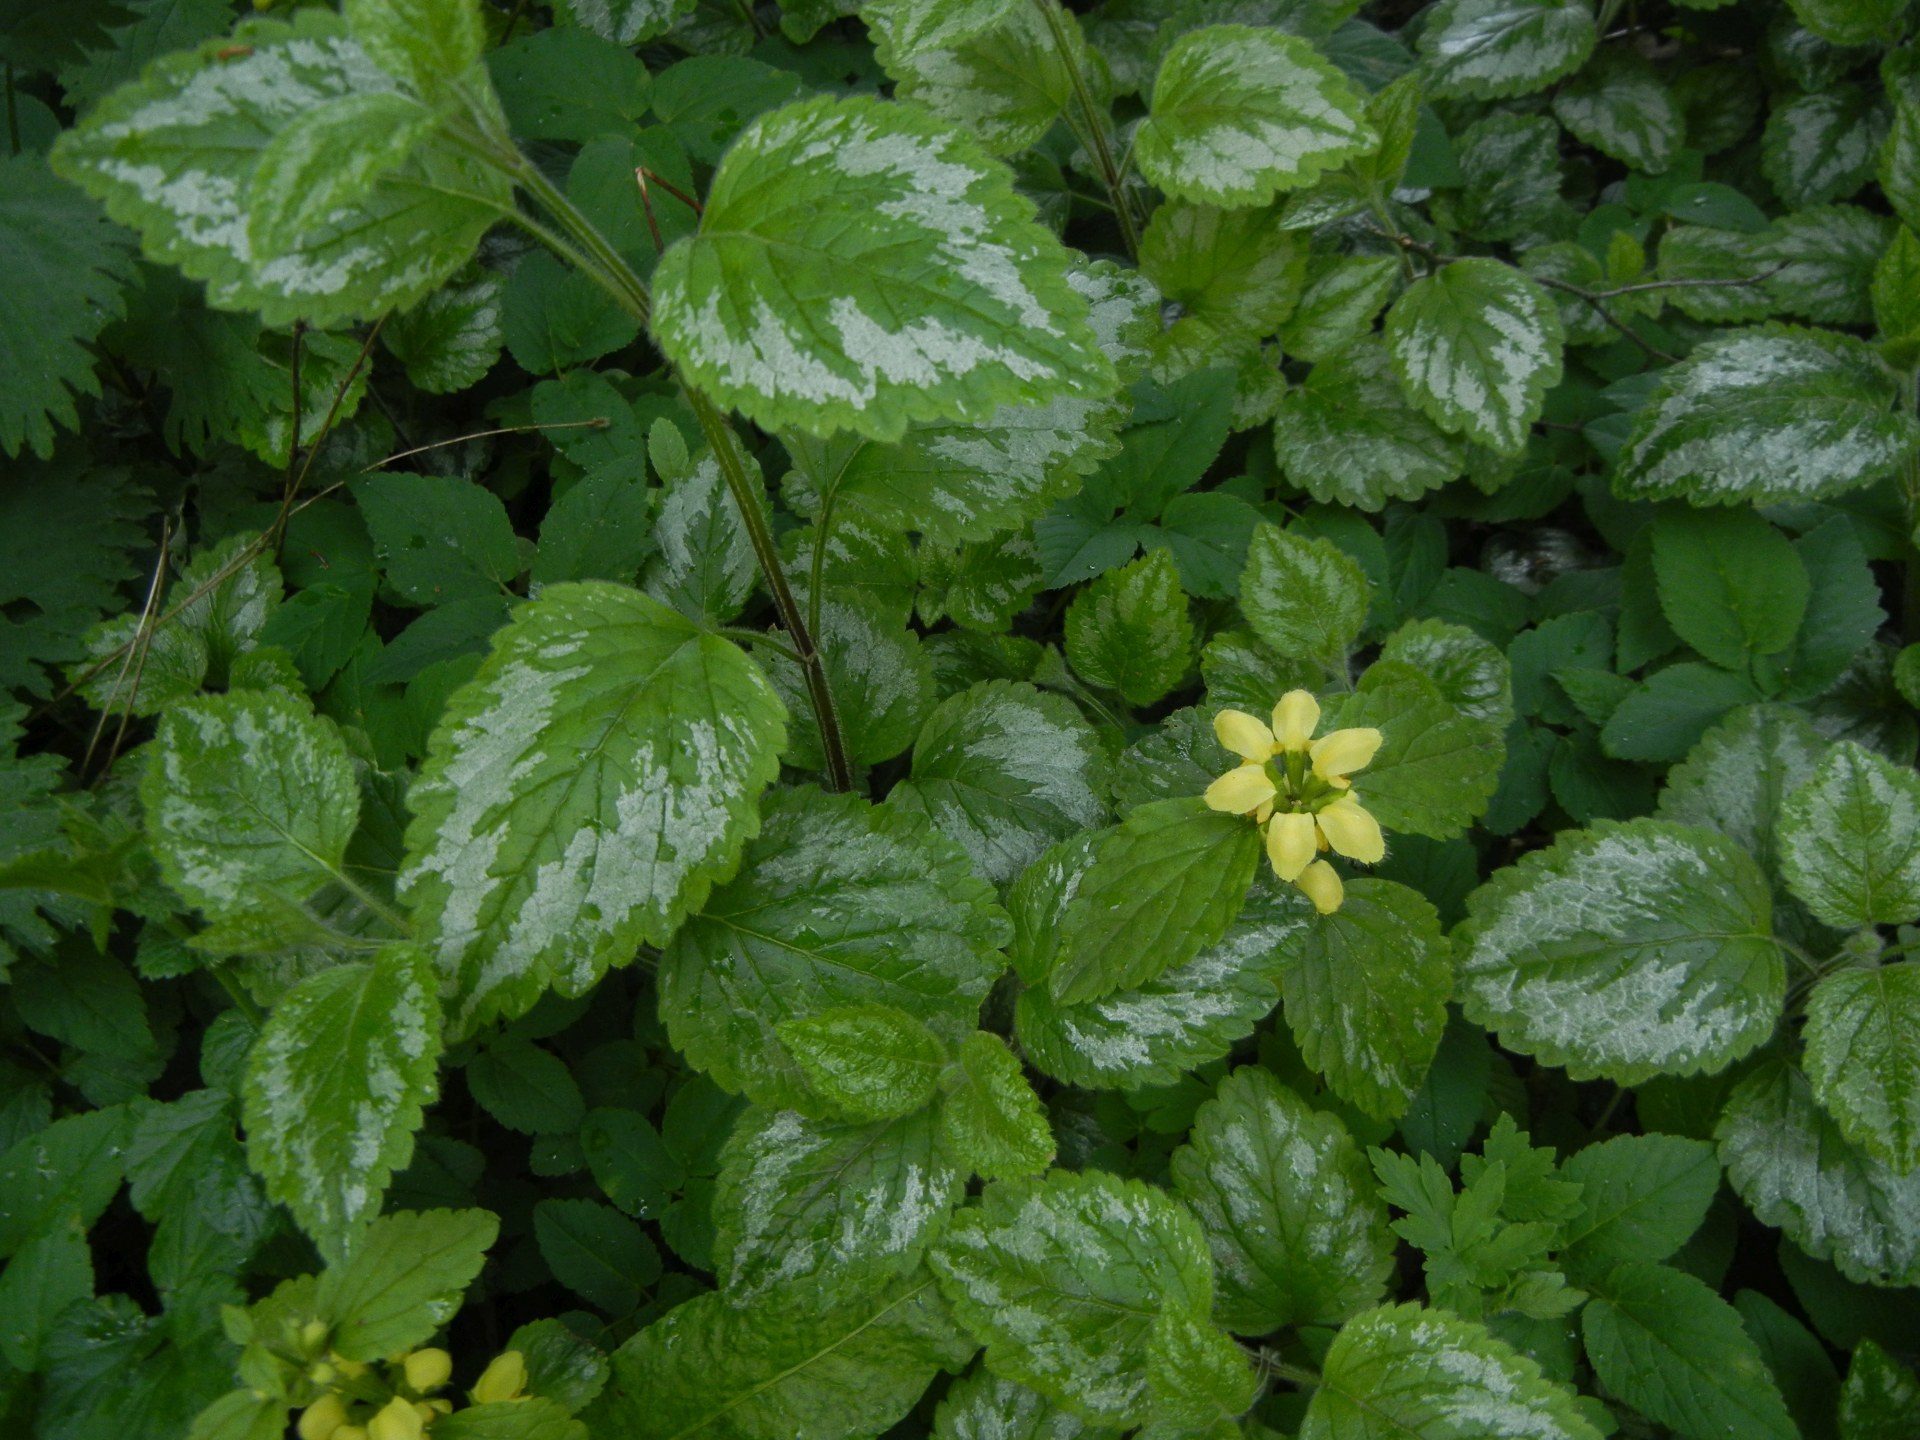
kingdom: Plantae
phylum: Tracheophyta
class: Magnoliopsida
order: Lamiales
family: Lamiaceae
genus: Lamium
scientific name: Lamium galeobdolon
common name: Yellow archangel
